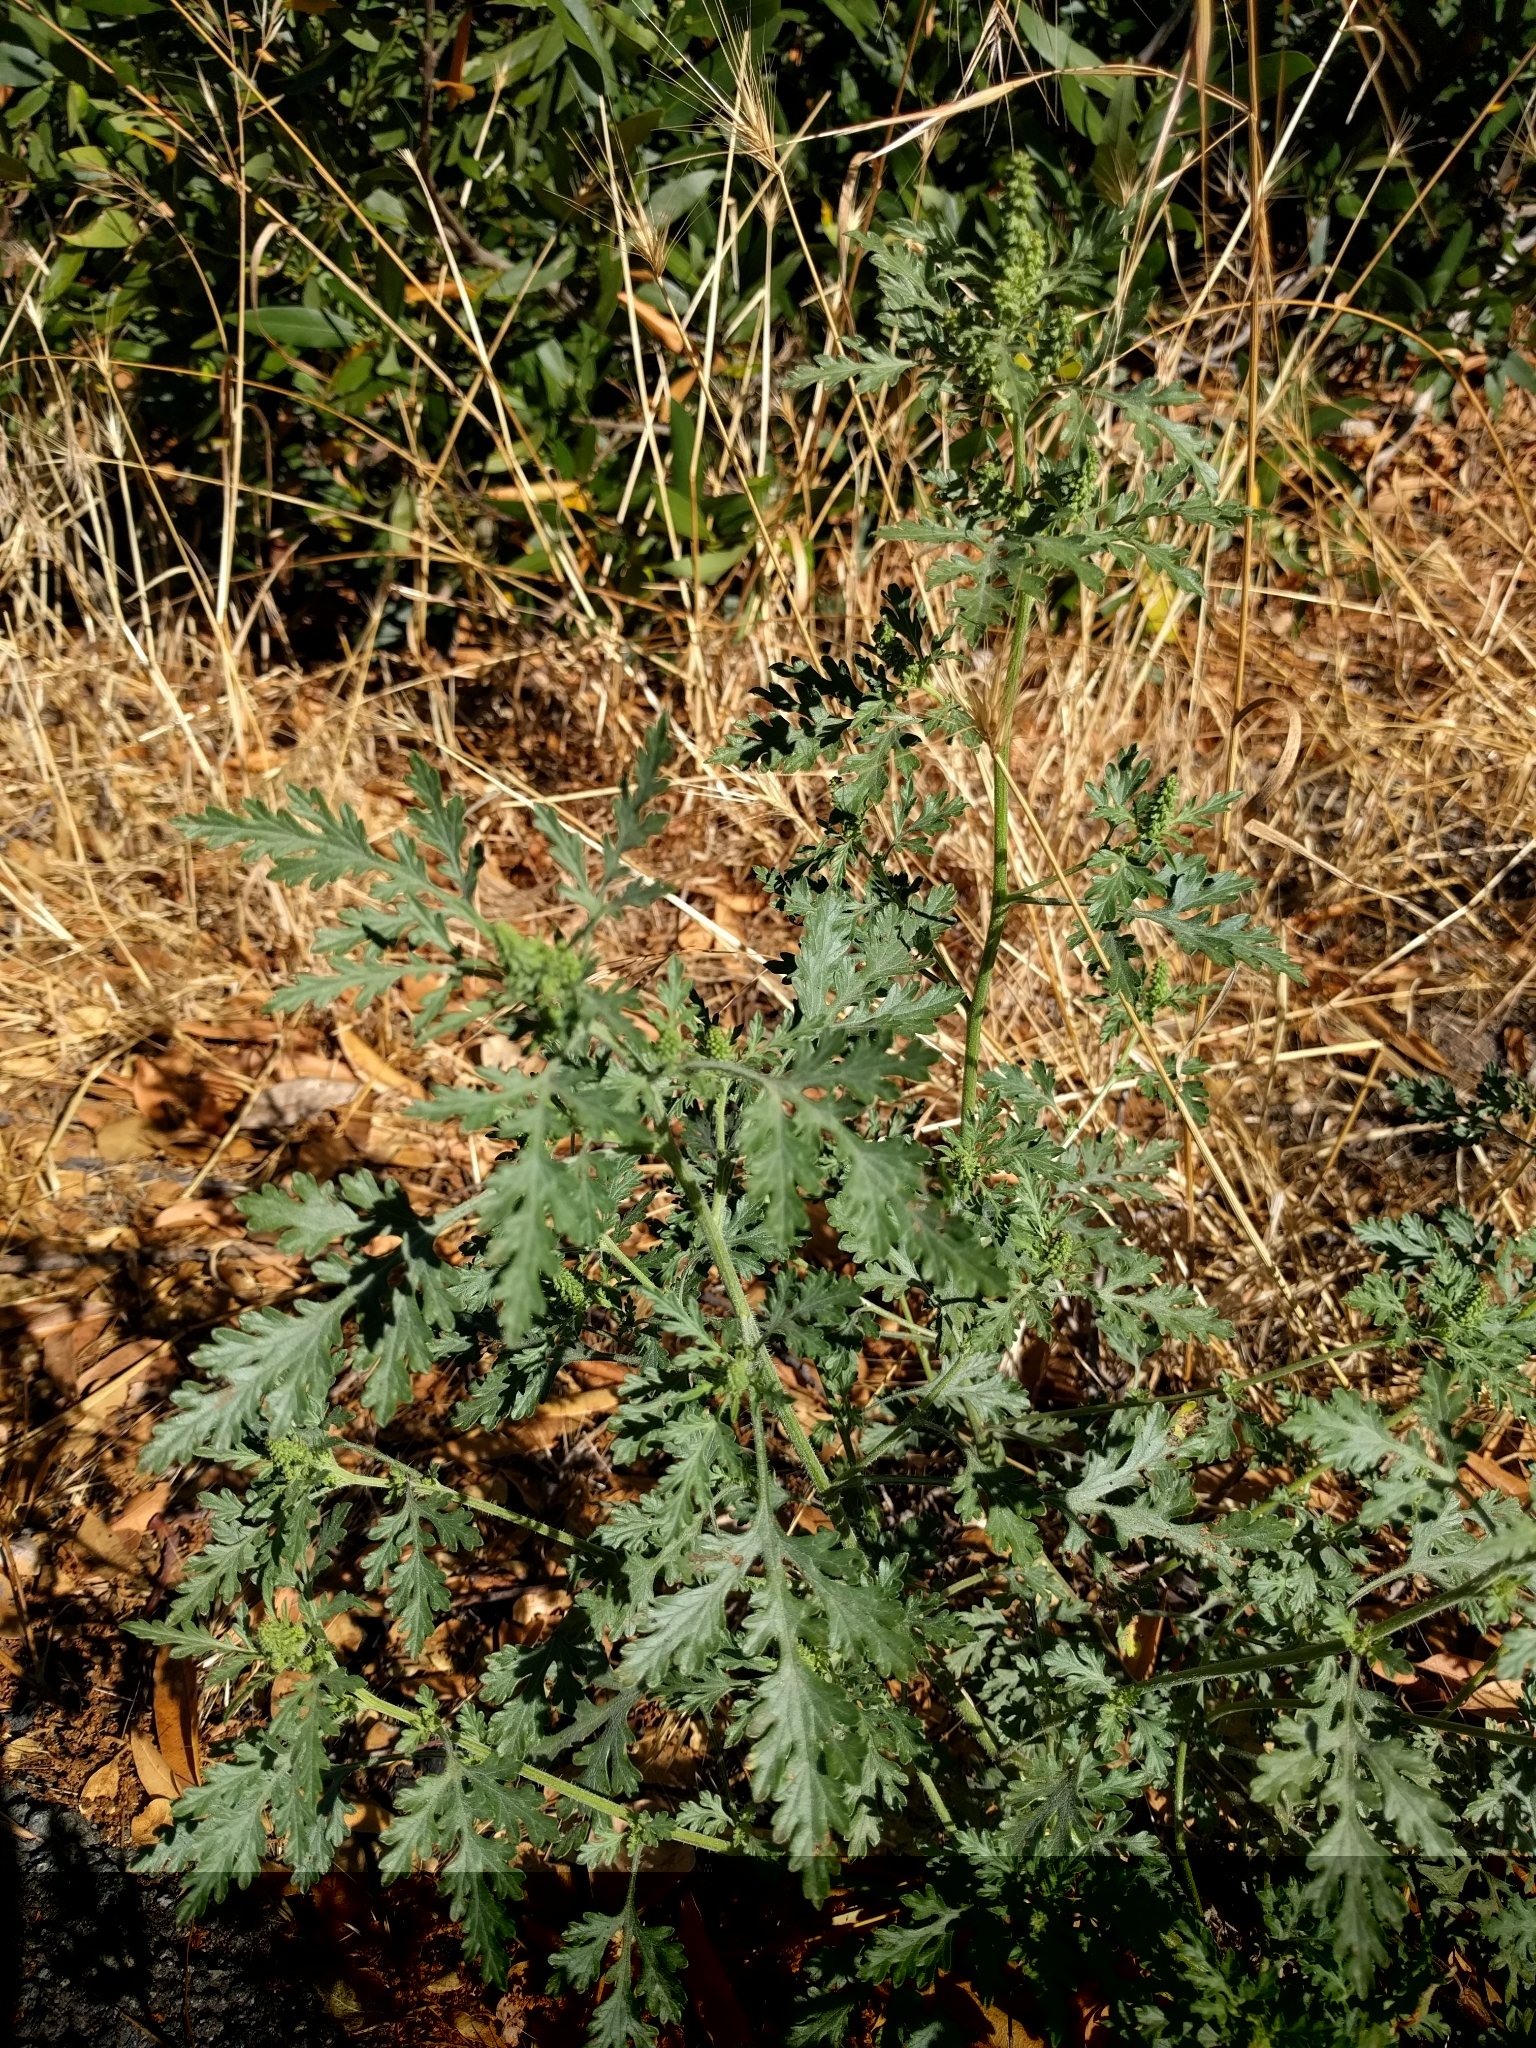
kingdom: Plantae
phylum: Tracheophyta
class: Magnoliopsida
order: Asterales
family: Asteraceae
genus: Ambrosia
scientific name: Ambrosia acanthicarpa
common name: Hooker's bur ragweed
